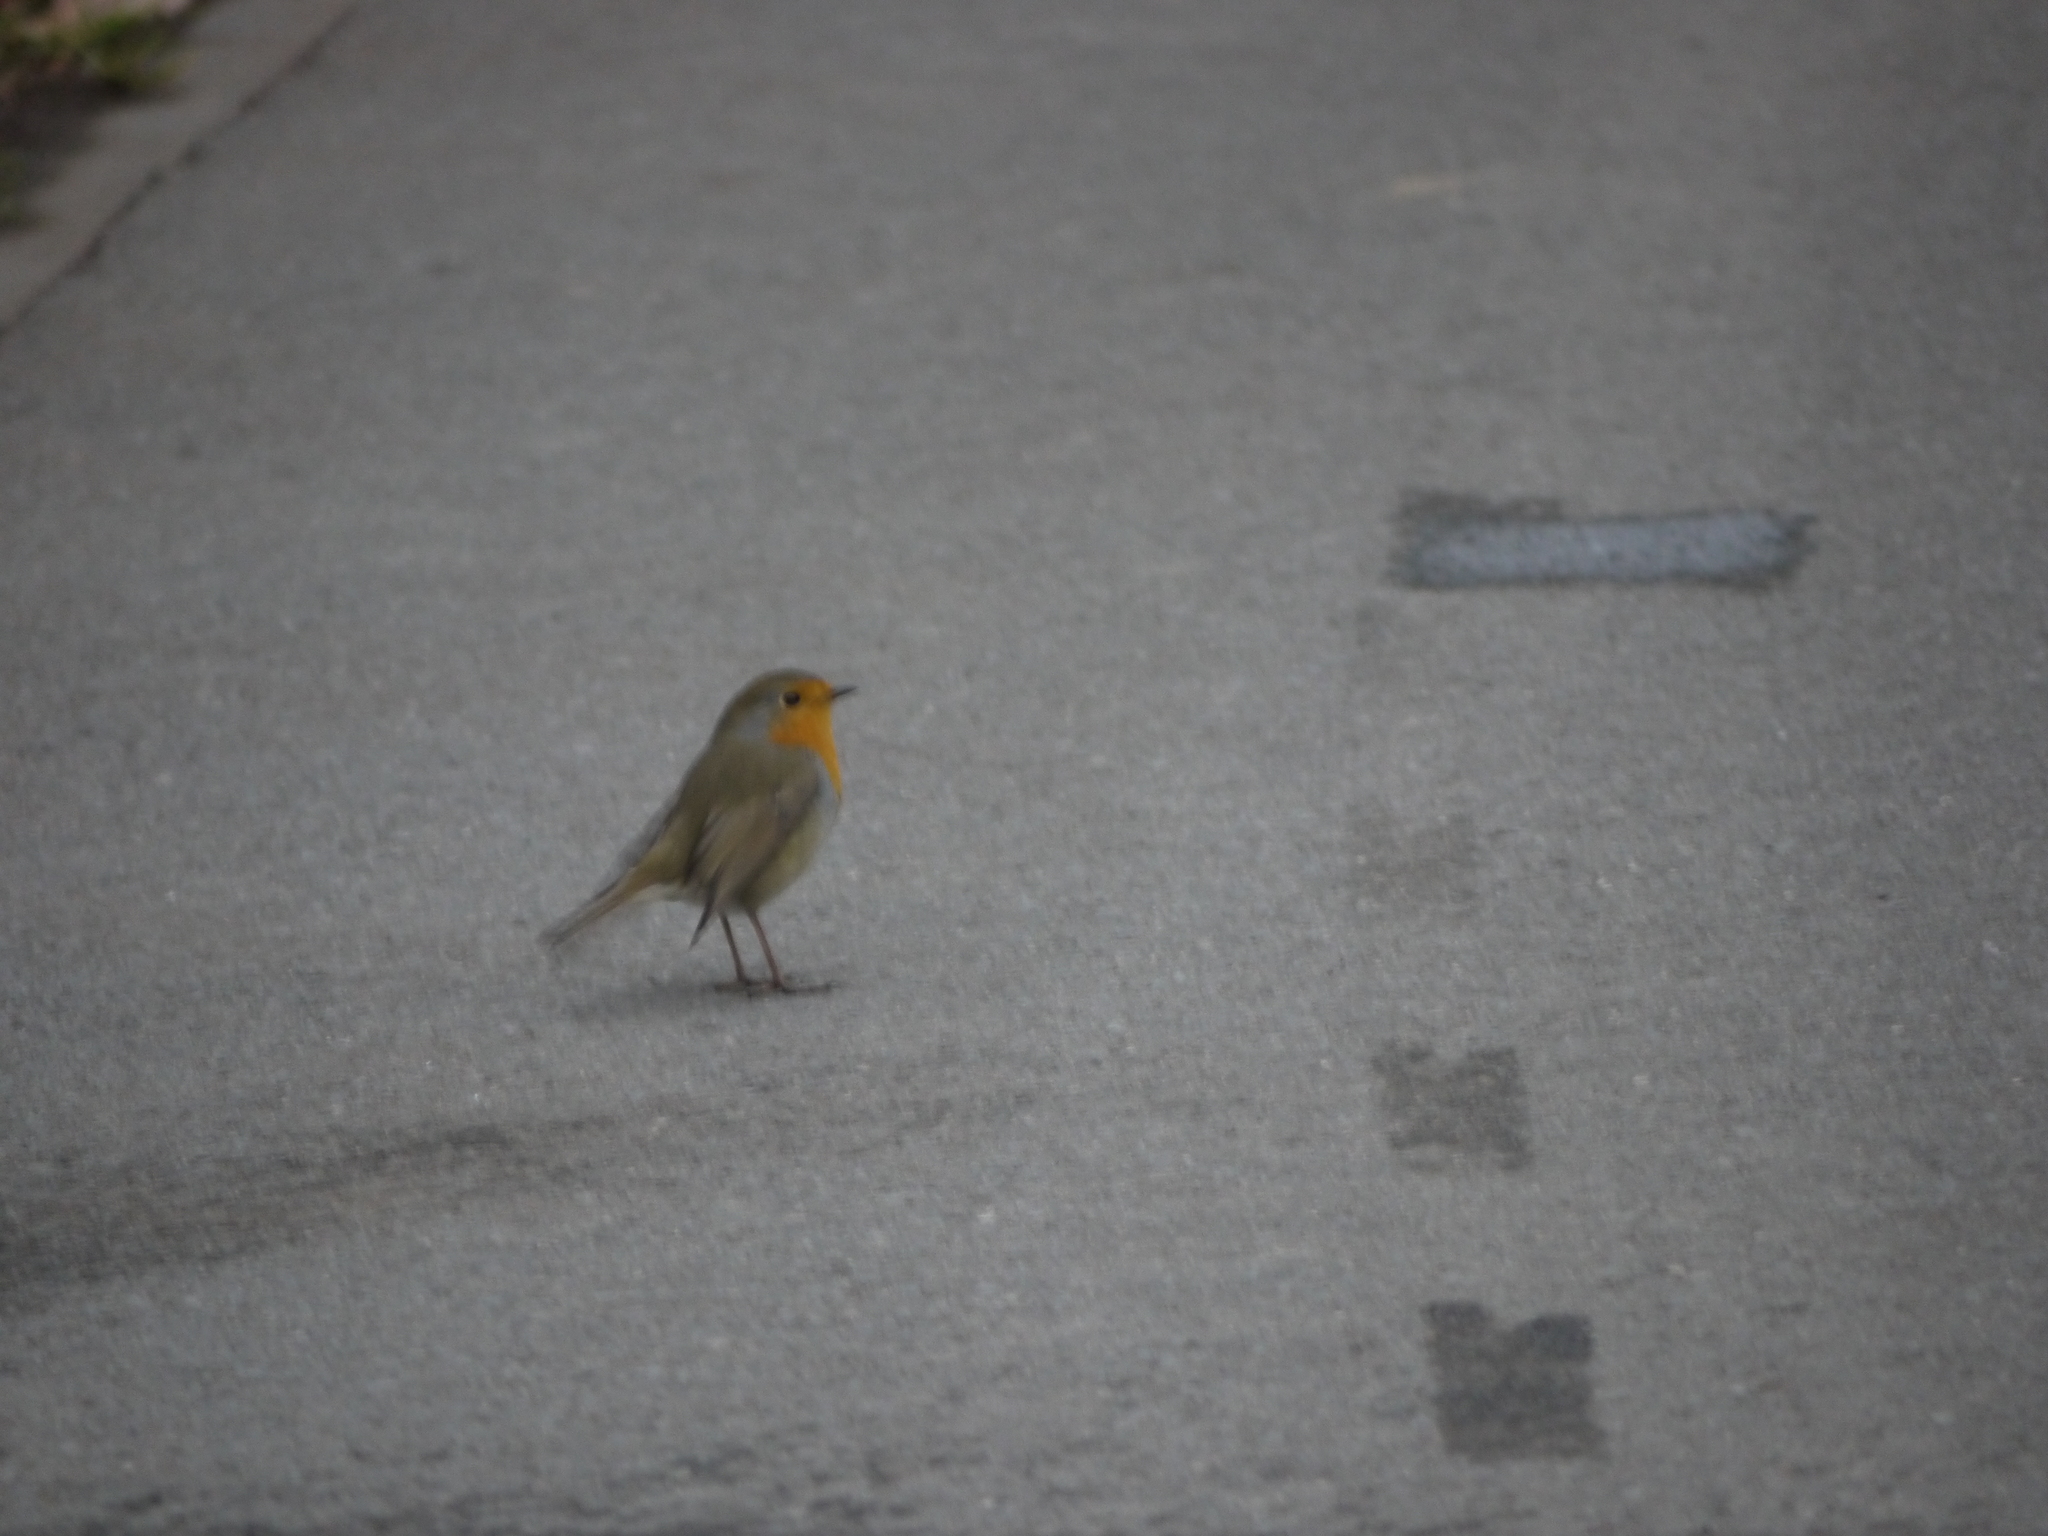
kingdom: Animalia
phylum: Chordata
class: Aves
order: Passeriformes
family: Muscicapidae
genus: Erithacus
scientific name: Erithacus rubecula
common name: European robin
